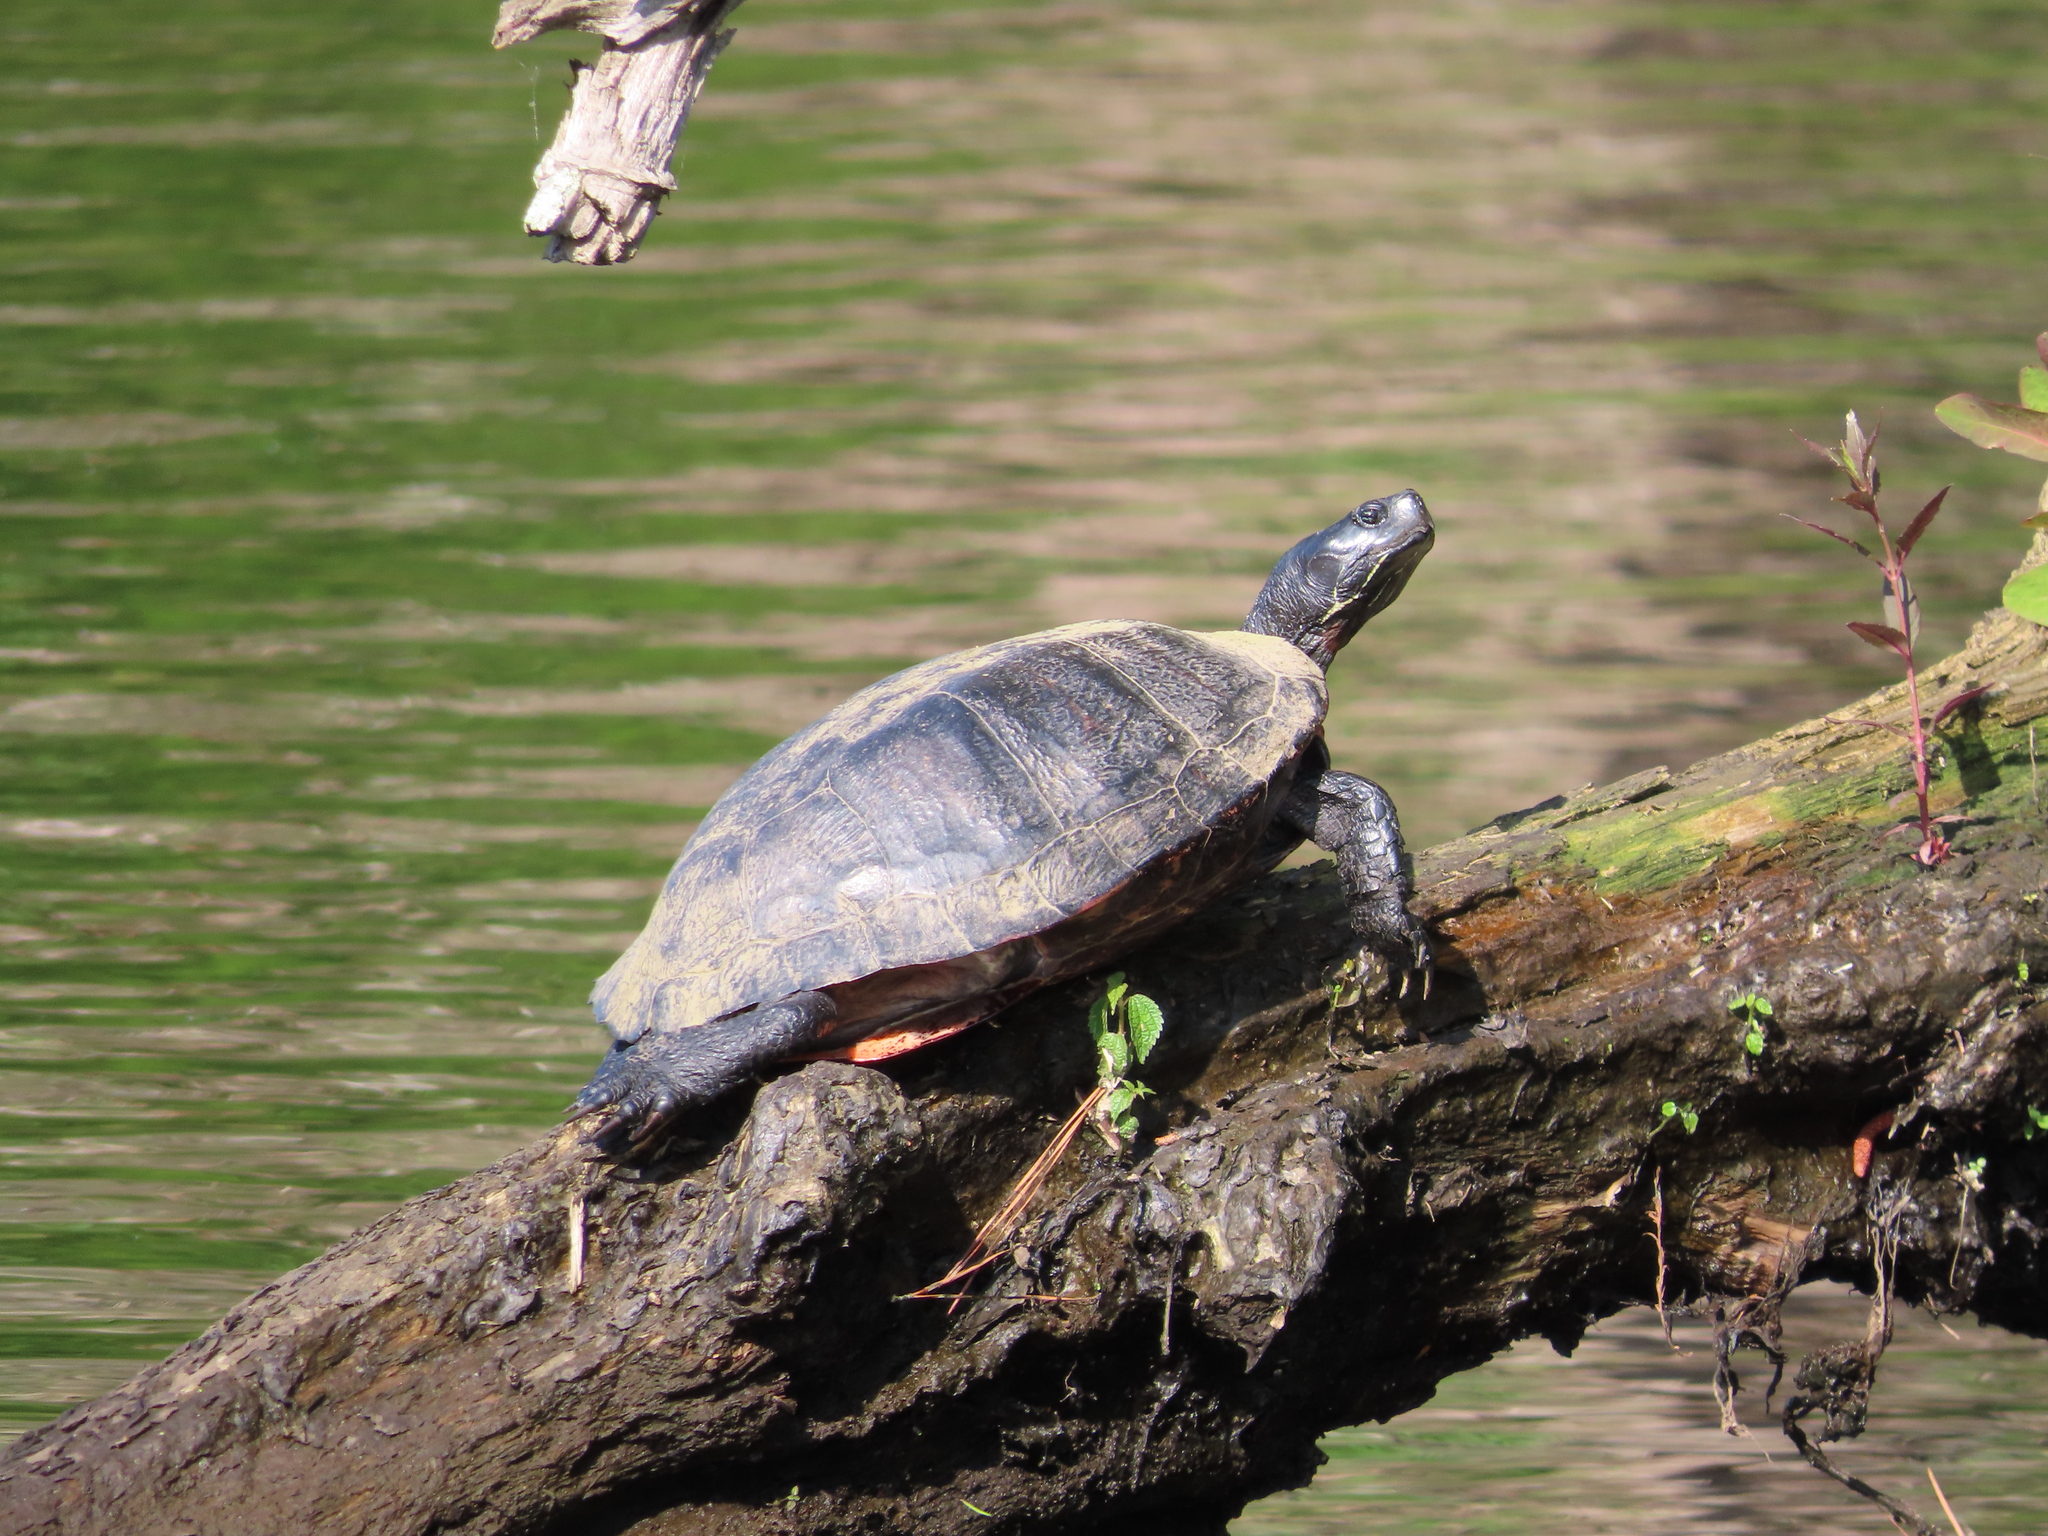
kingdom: Animalia
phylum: Chordata
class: Testudines
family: Emydidae
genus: Pseudemys
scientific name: Pseudemys rubriventris
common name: American red-bellied turtle
